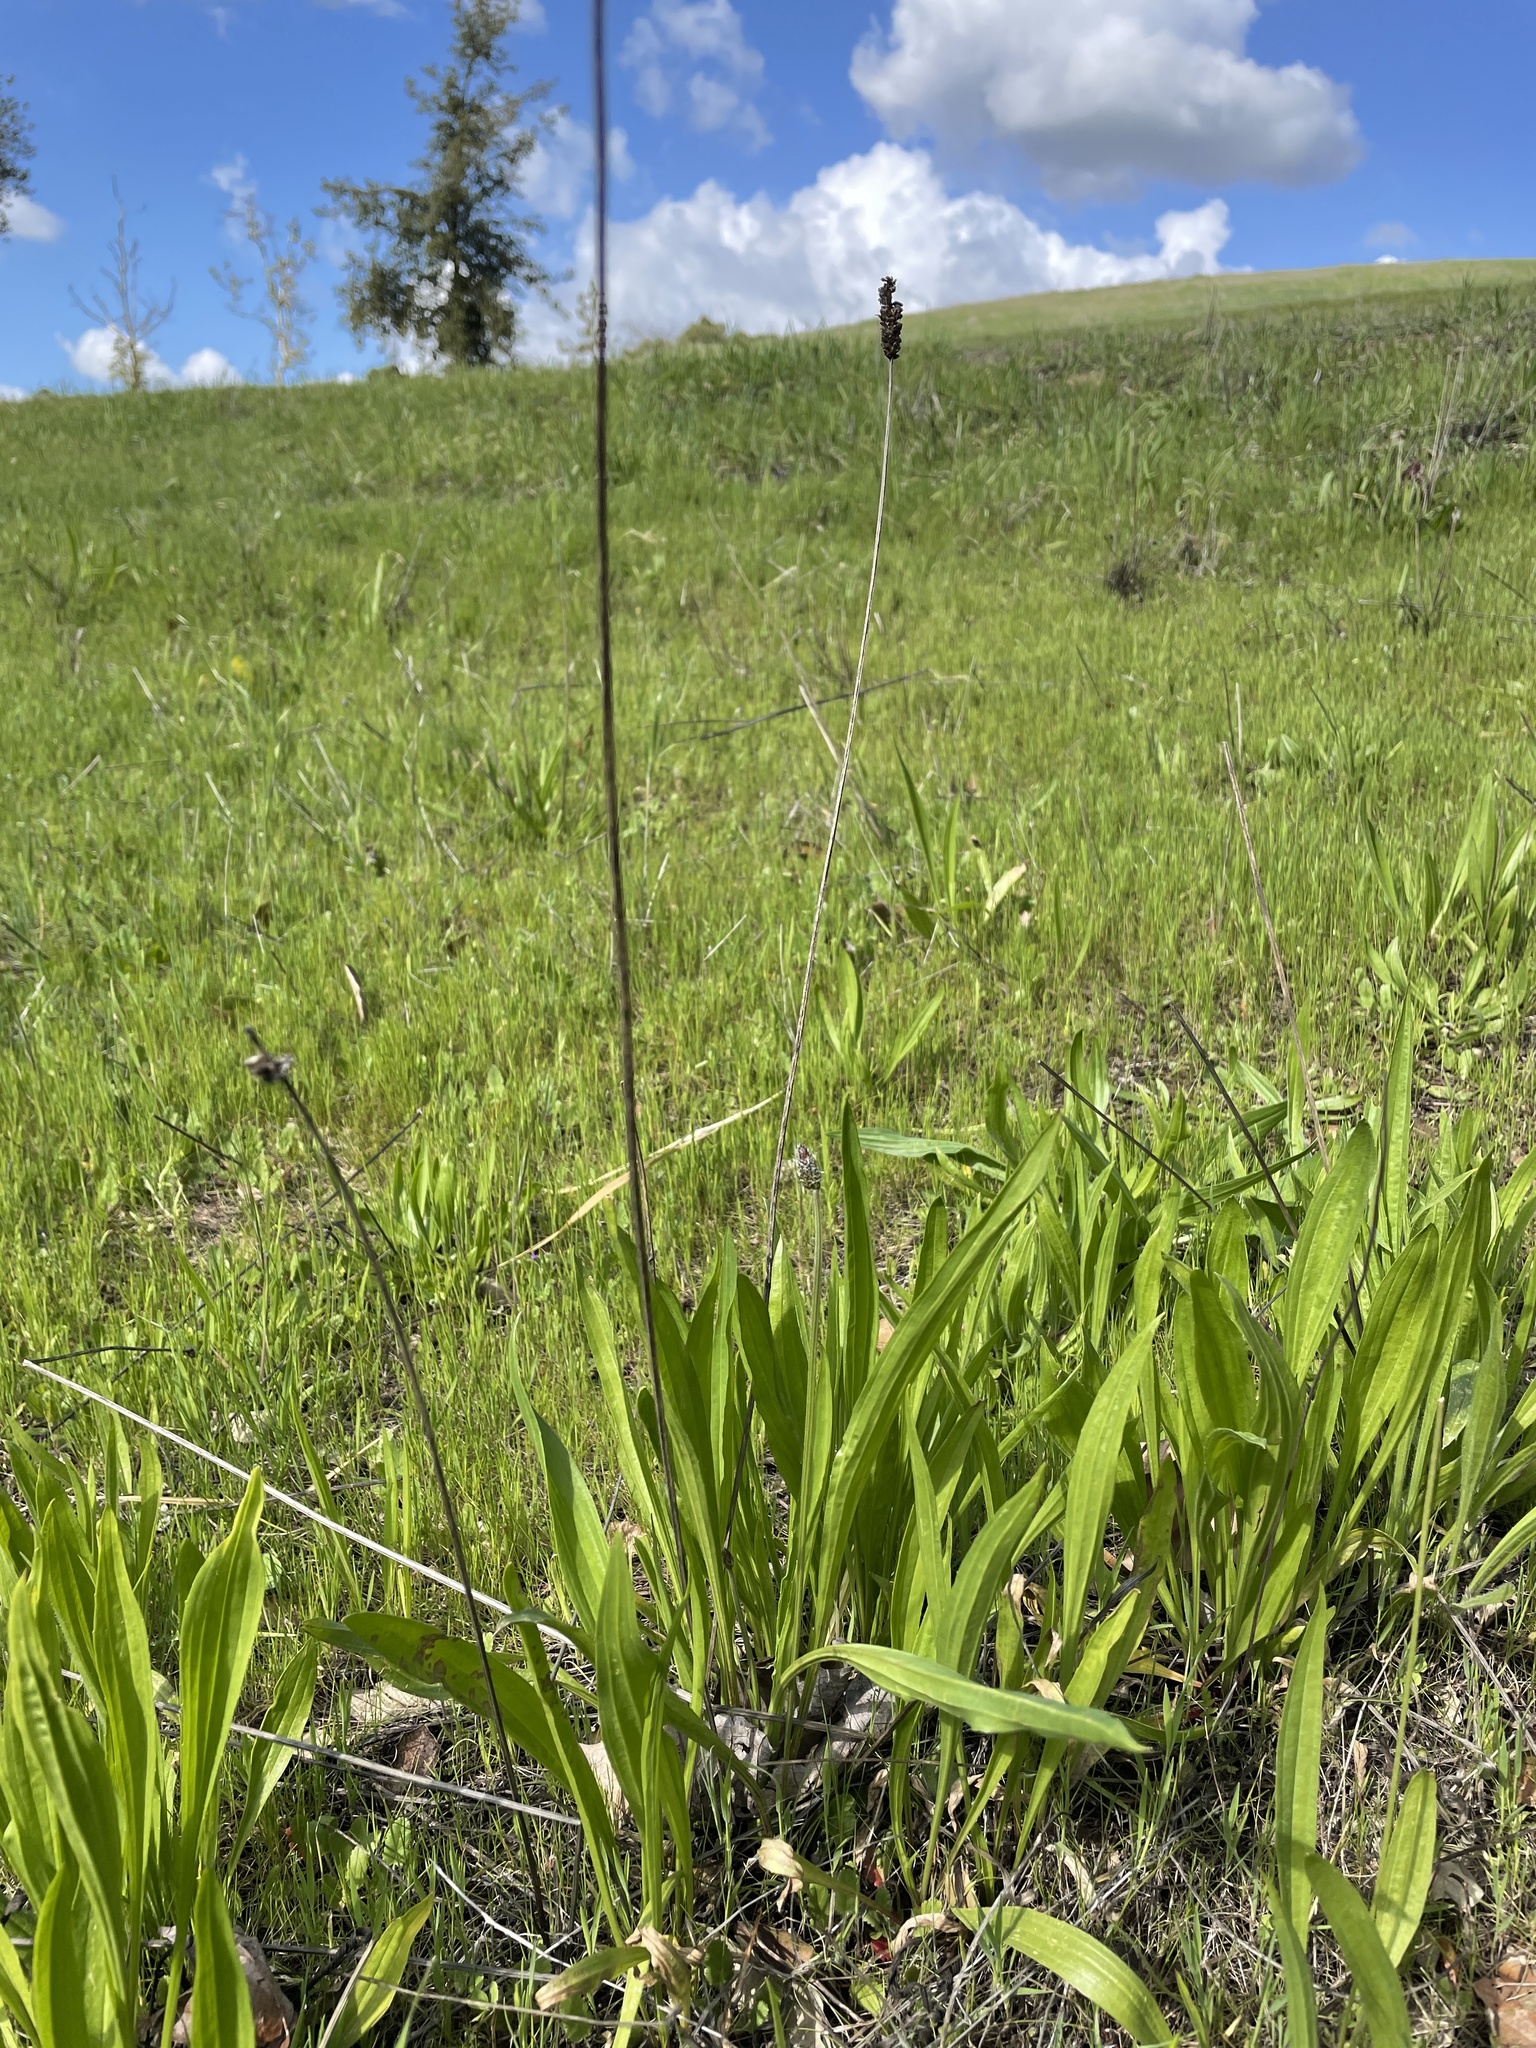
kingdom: Plantae
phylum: Tracheophyta
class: Magnoliopsida
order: Lamiales
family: Plantaginaceae
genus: Plantago
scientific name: Plantago lanceolata
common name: Ribwort plantain
